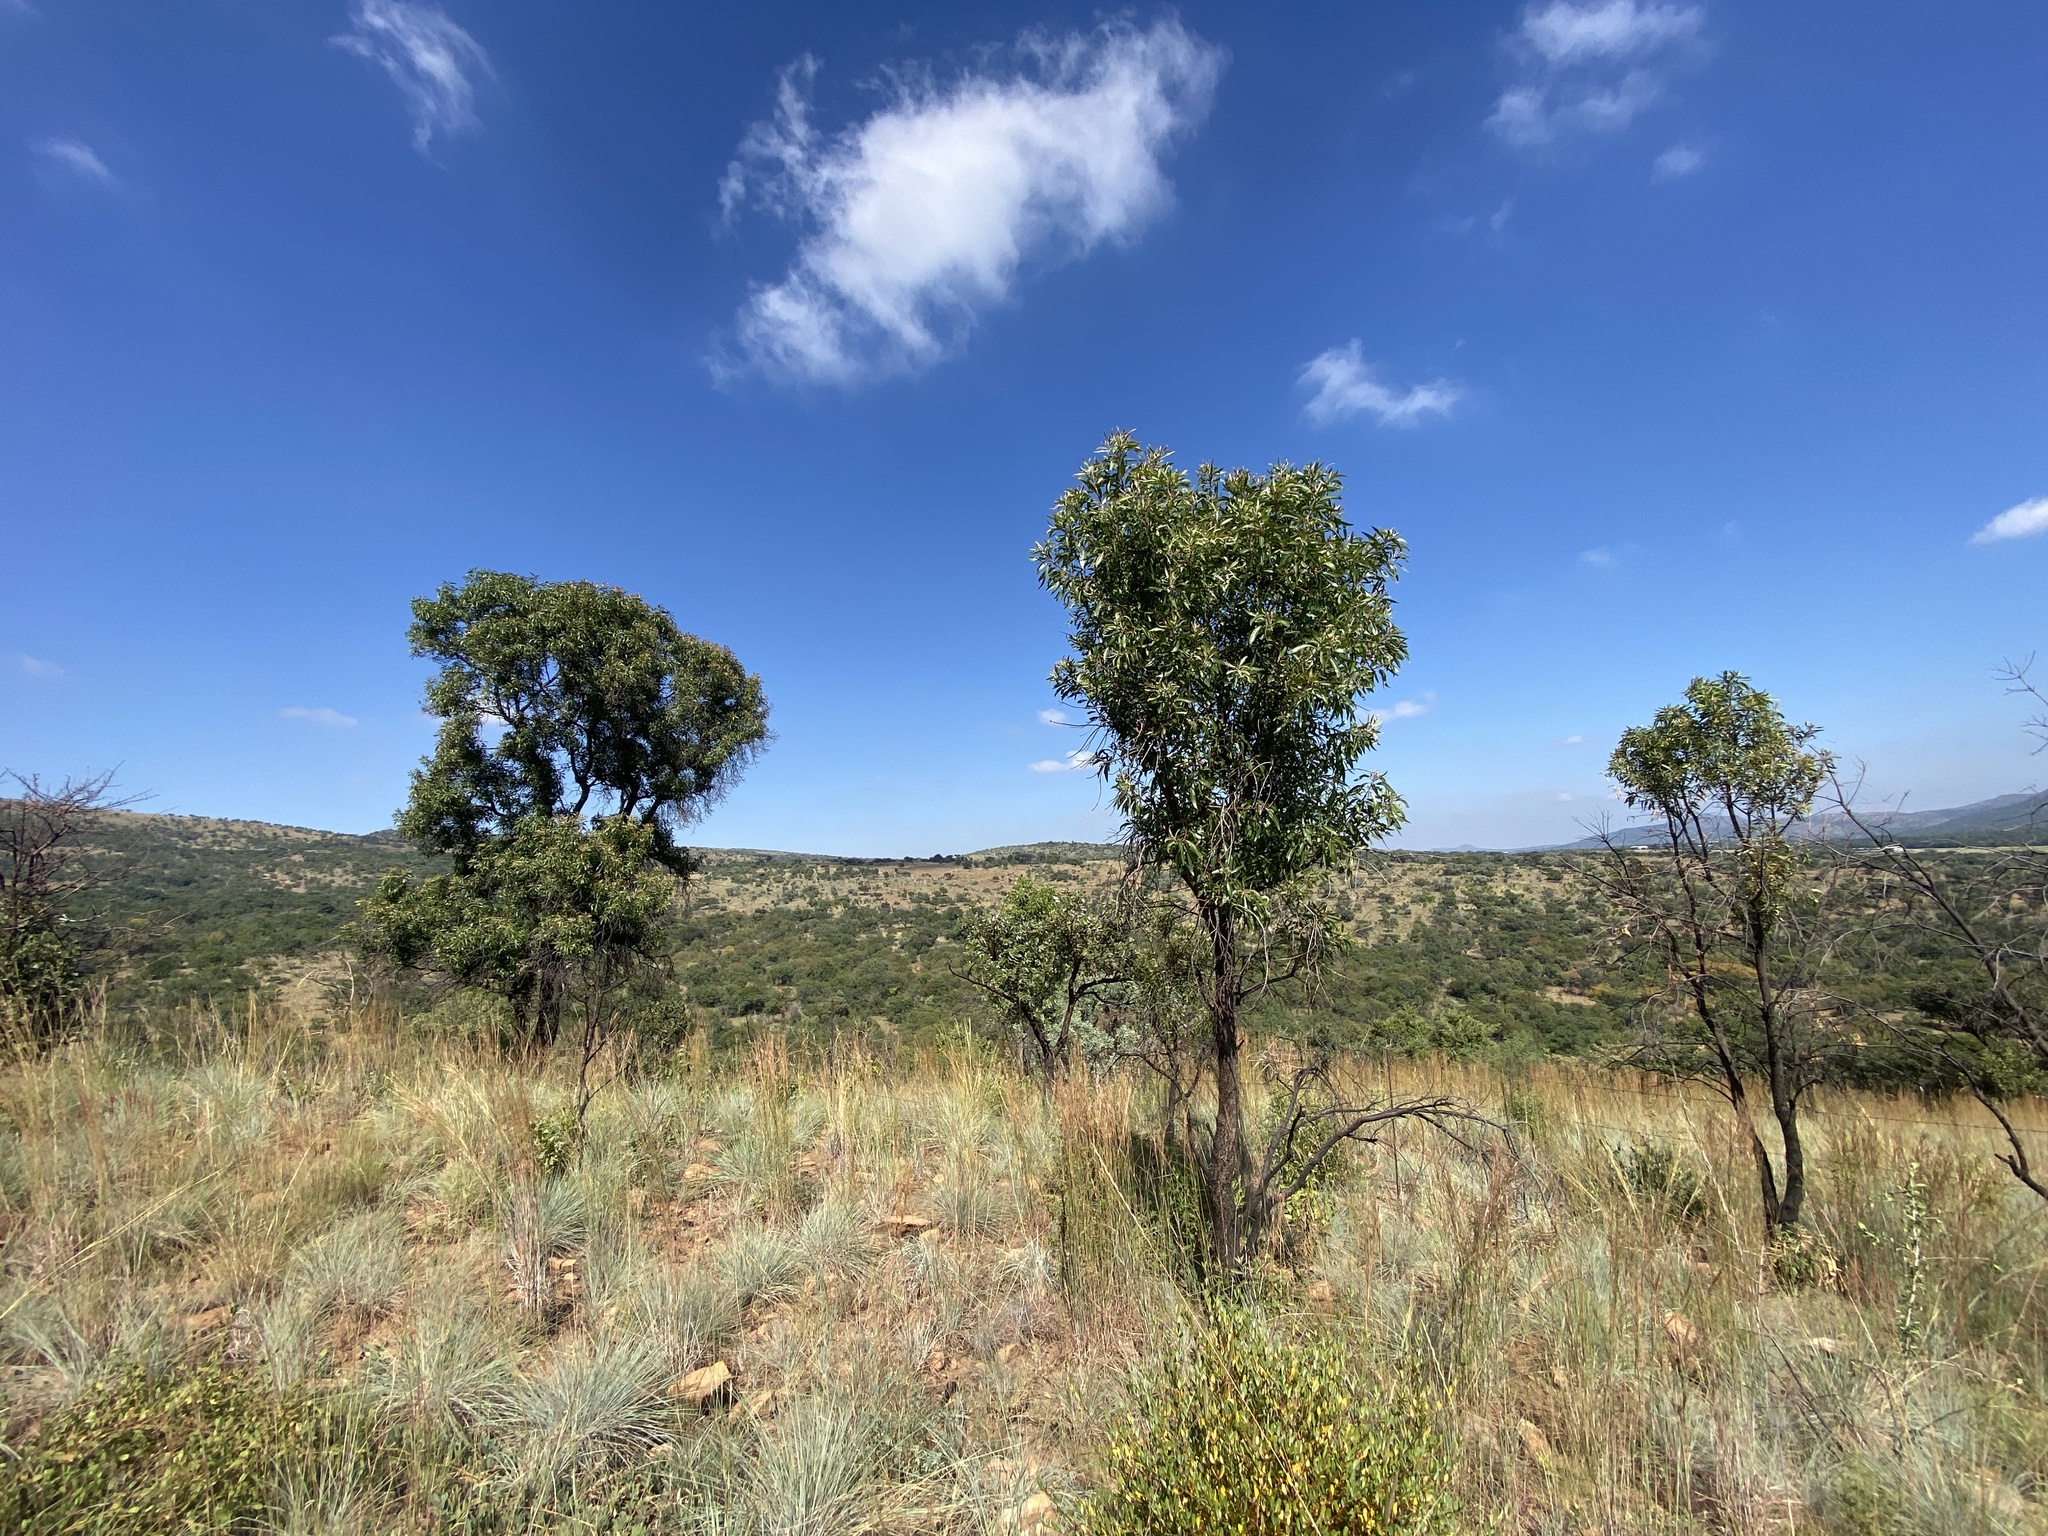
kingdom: Plantae
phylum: Tracheophyta
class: Magnoliopsida
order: Proteales
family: Proteaceae
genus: Faurea
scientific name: Faurea saligna
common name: African bean
